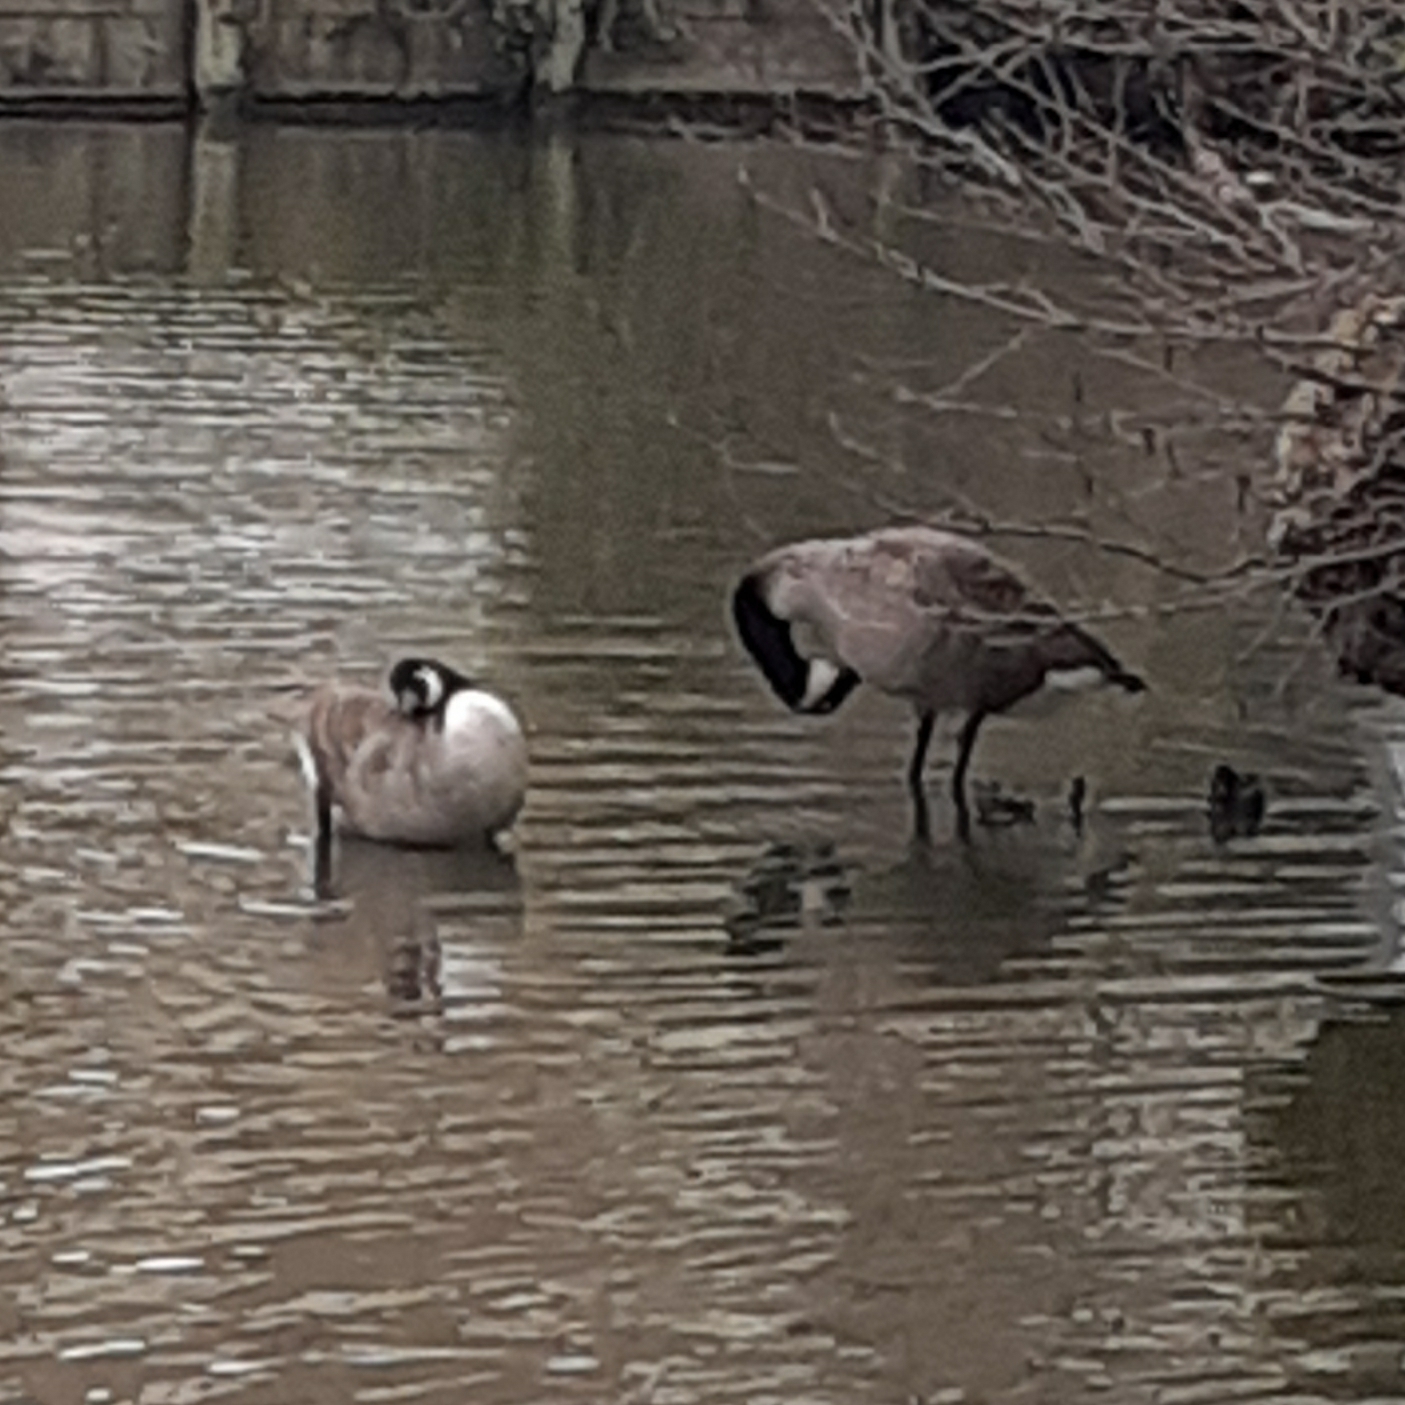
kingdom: Animalia
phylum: Chordata
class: Aves
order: Anseriformes
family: Anatidae
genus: Branta
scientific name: Branta canadensis
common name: Canada goose
